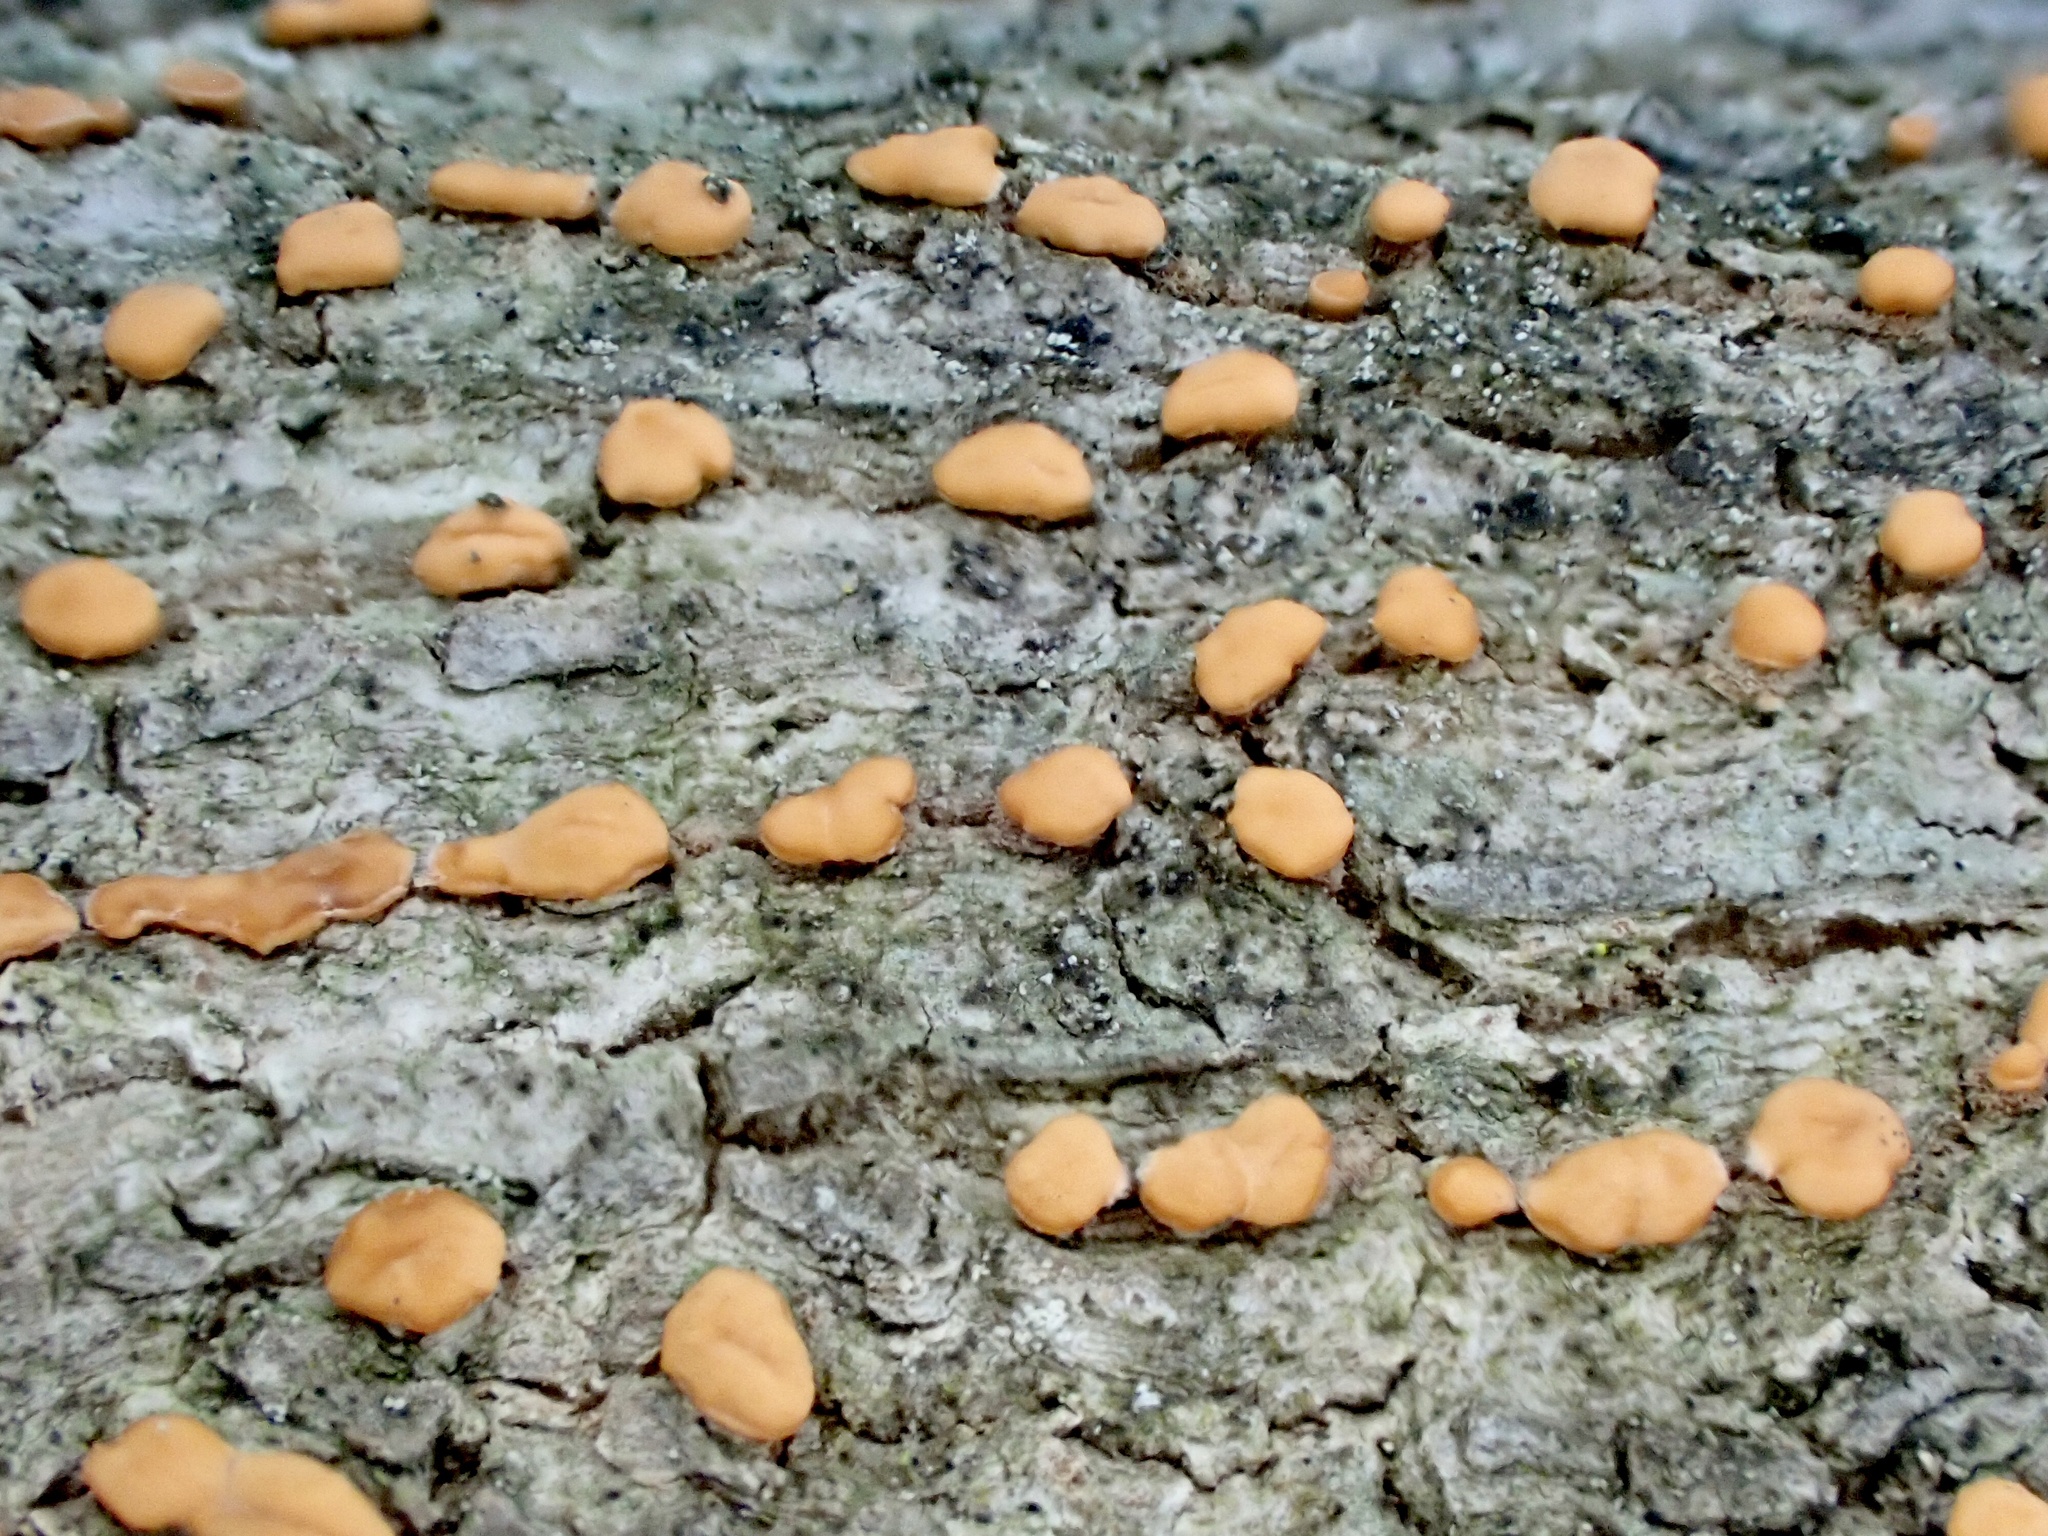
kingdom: Fungi
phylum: Ascomycota
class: Sordariomycetes
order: Hypocreales
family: Nectriaceae
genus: Nectria
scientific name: Nectria cinnabarina
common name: Coral spot
